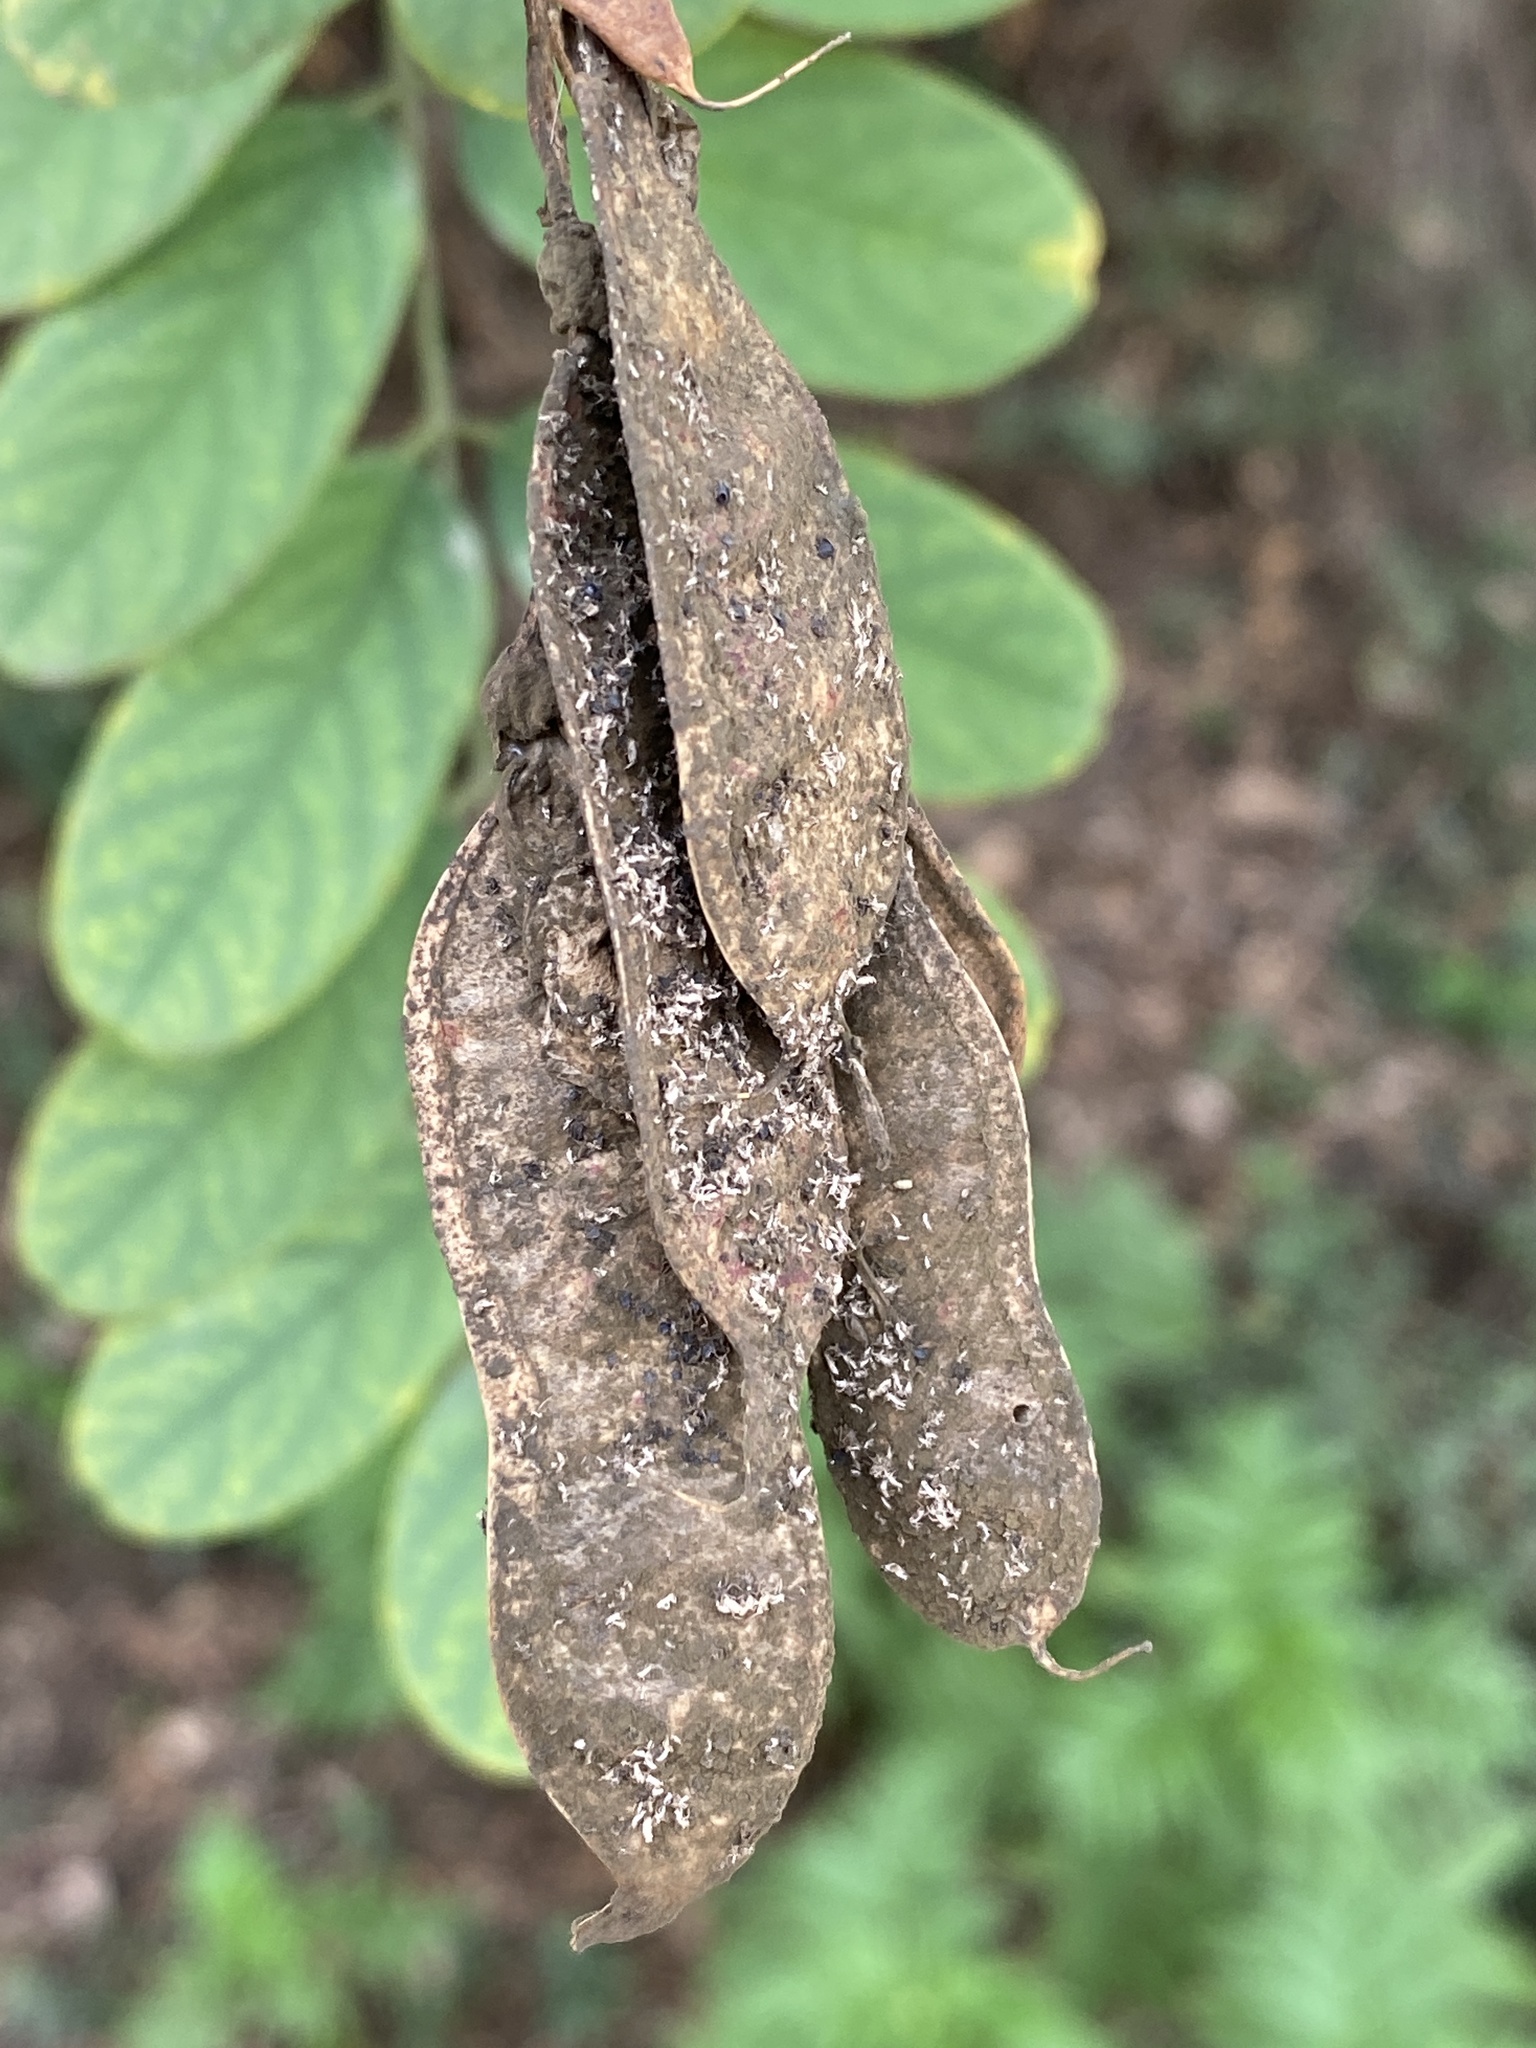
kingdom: Plantae
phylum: Tracheophyta
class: Magnoliopsida
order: Fabales
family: Fabaceae
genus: Robinia
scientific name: Robinia pseudoacacia
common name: Black locust
